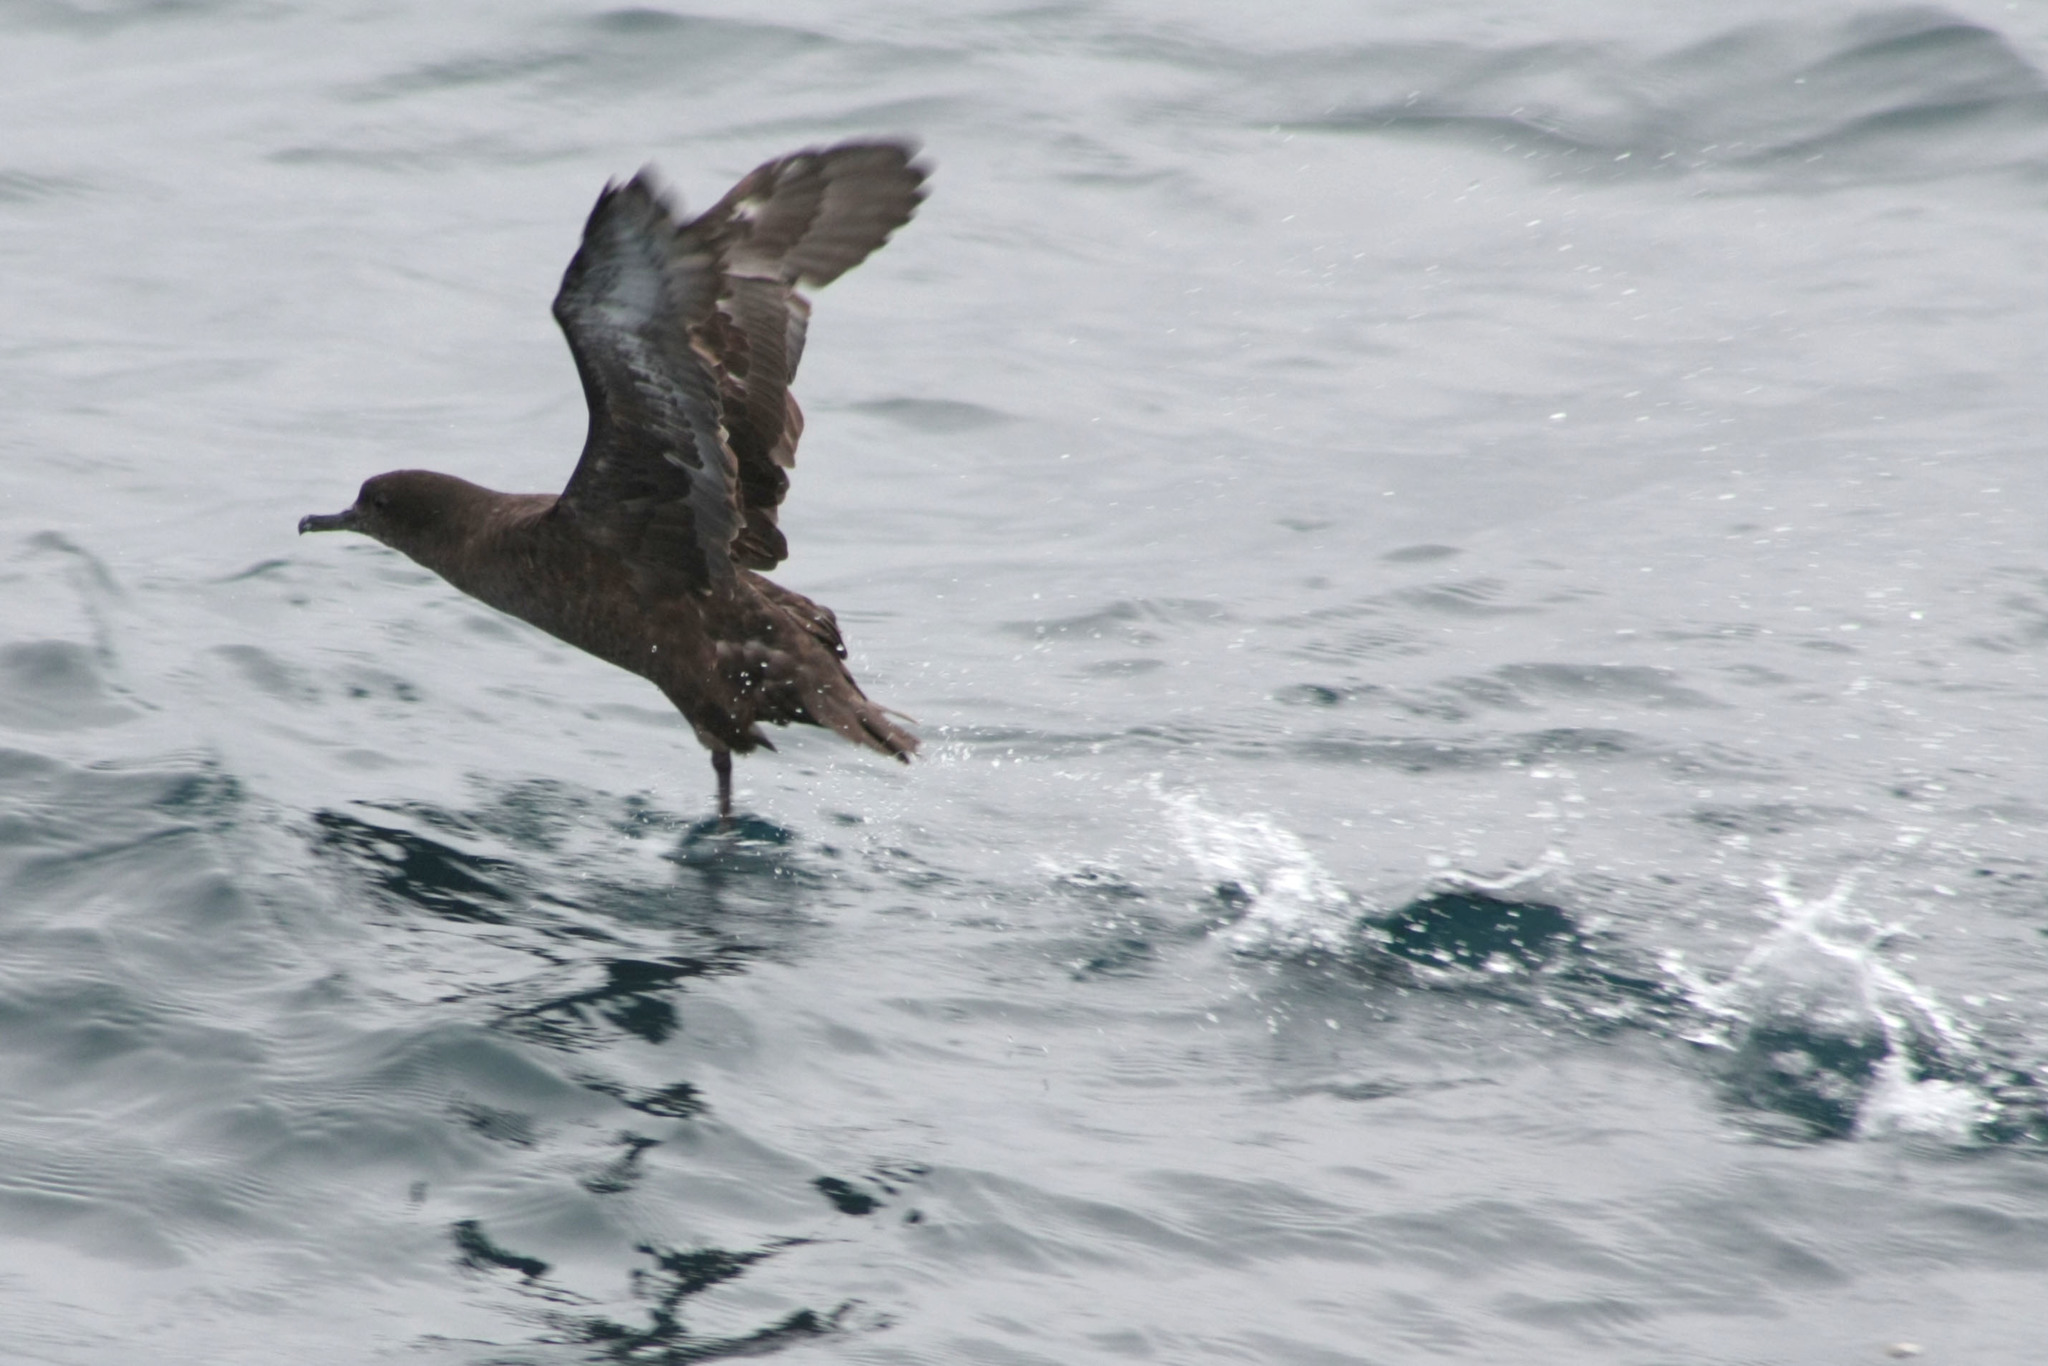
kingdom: Animalia
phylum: Chordata
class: Aves
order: Procellariiformes
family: Procellariidae
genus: Puffinus
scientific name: Puffinus griseus
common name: Sooty shearwater
